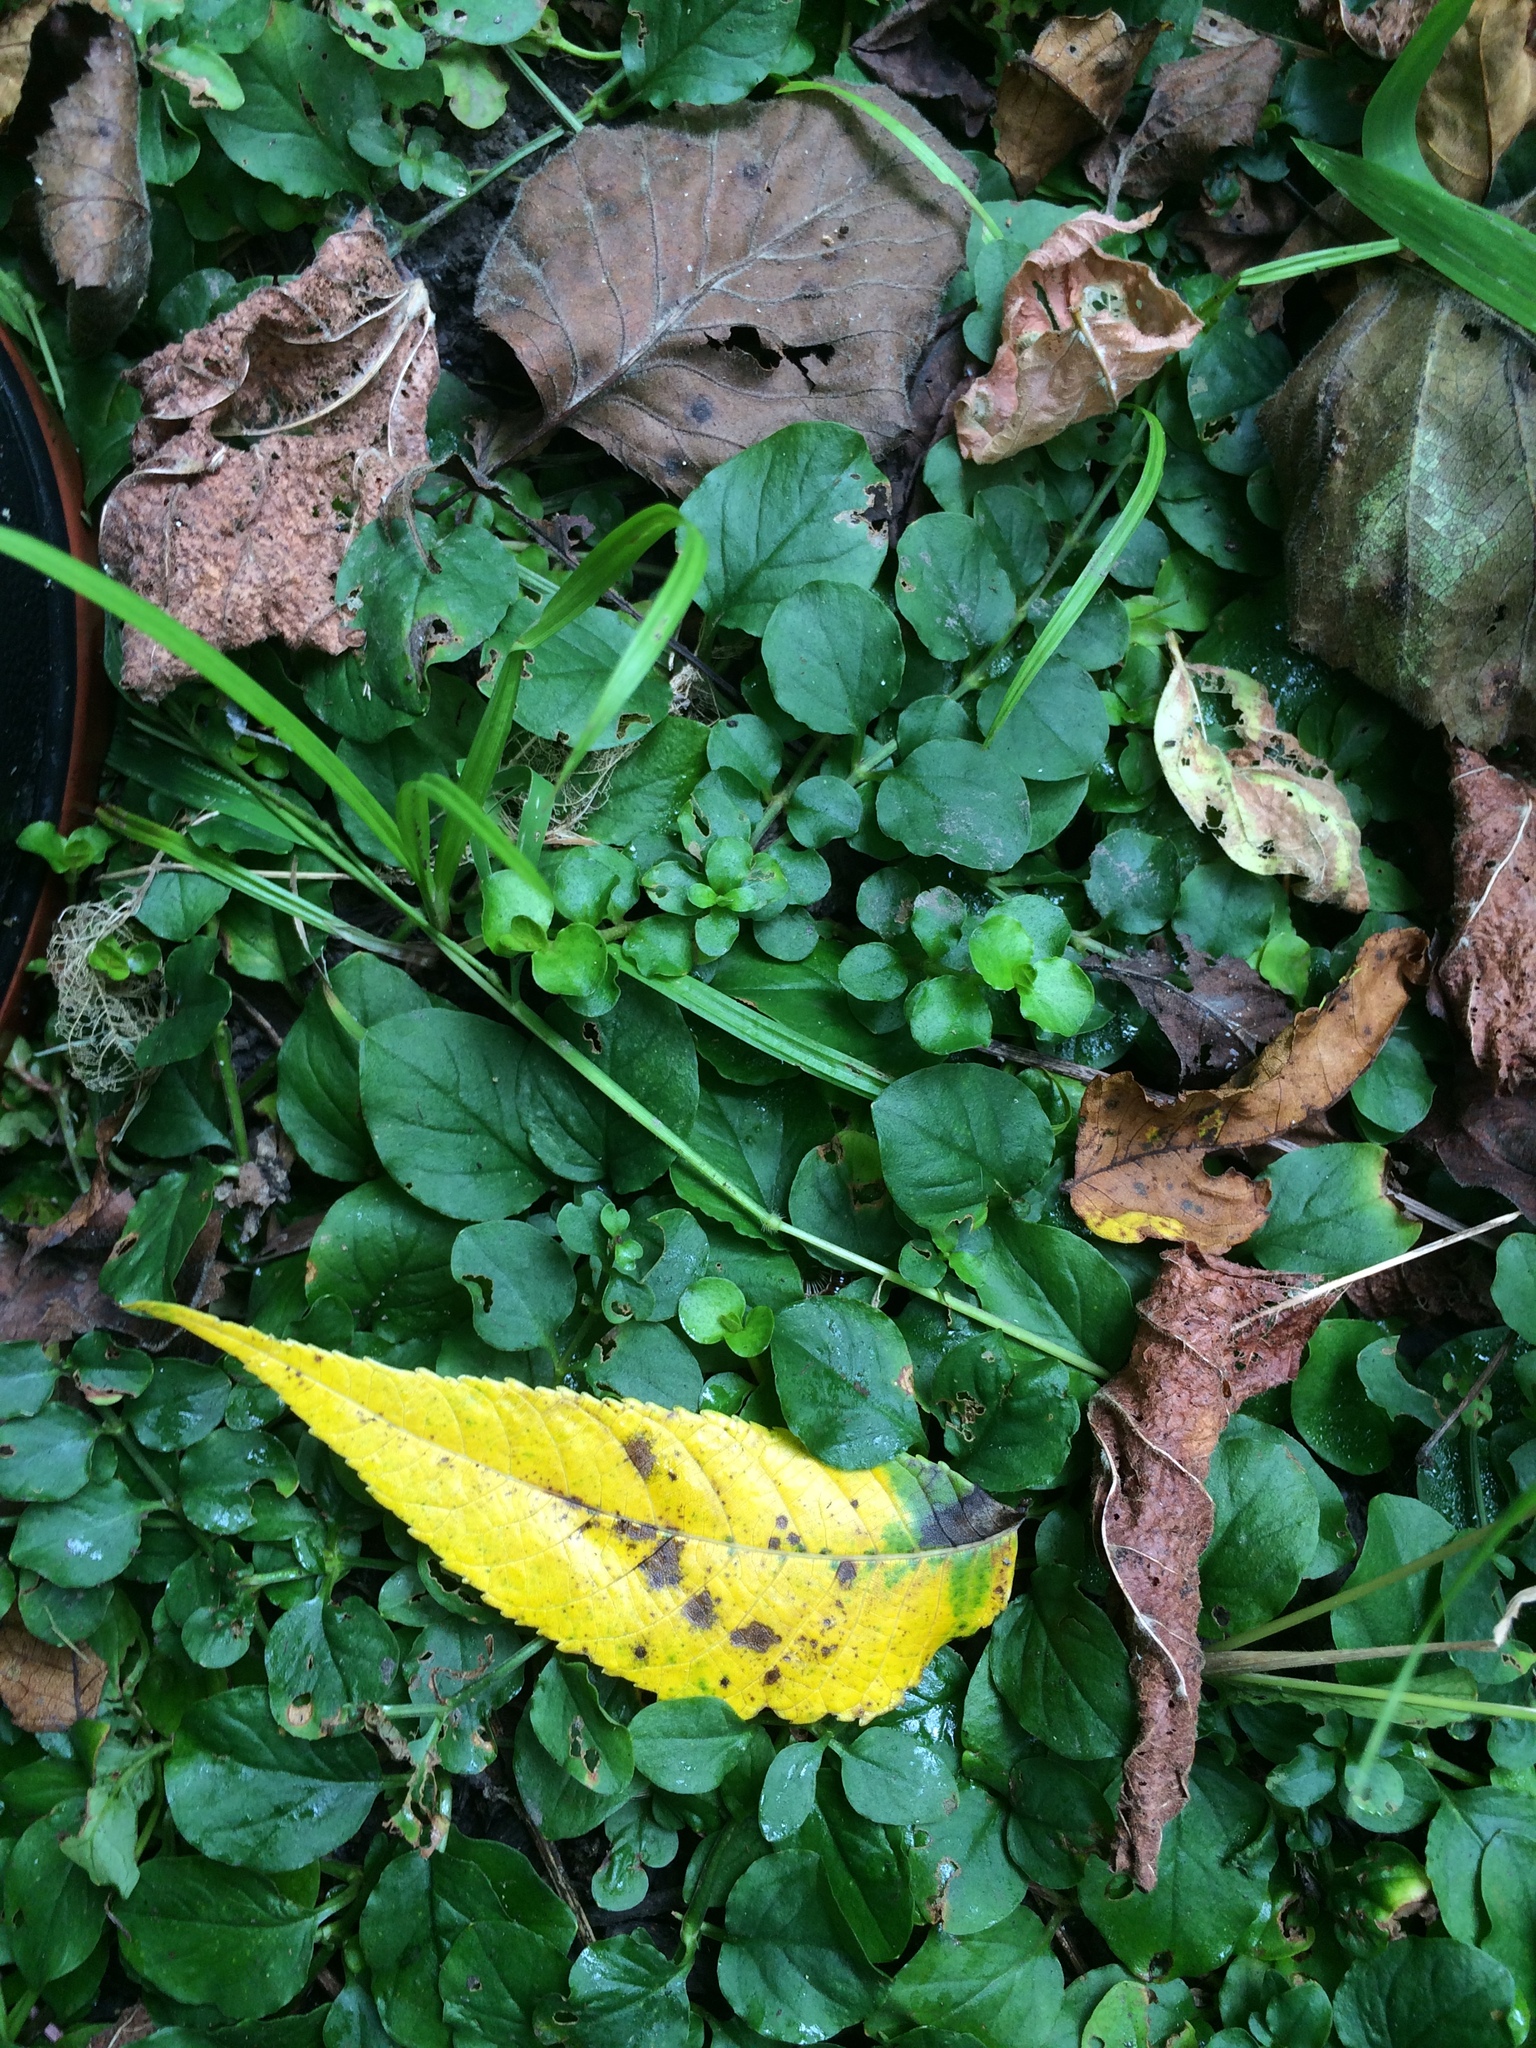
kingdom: Plantae
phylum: Tracheophyta
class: Magnoliopsida
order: Ericales
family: Primulaceae
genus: Lysimachia
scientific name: Lysimachia nummularia
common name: Moneywort
